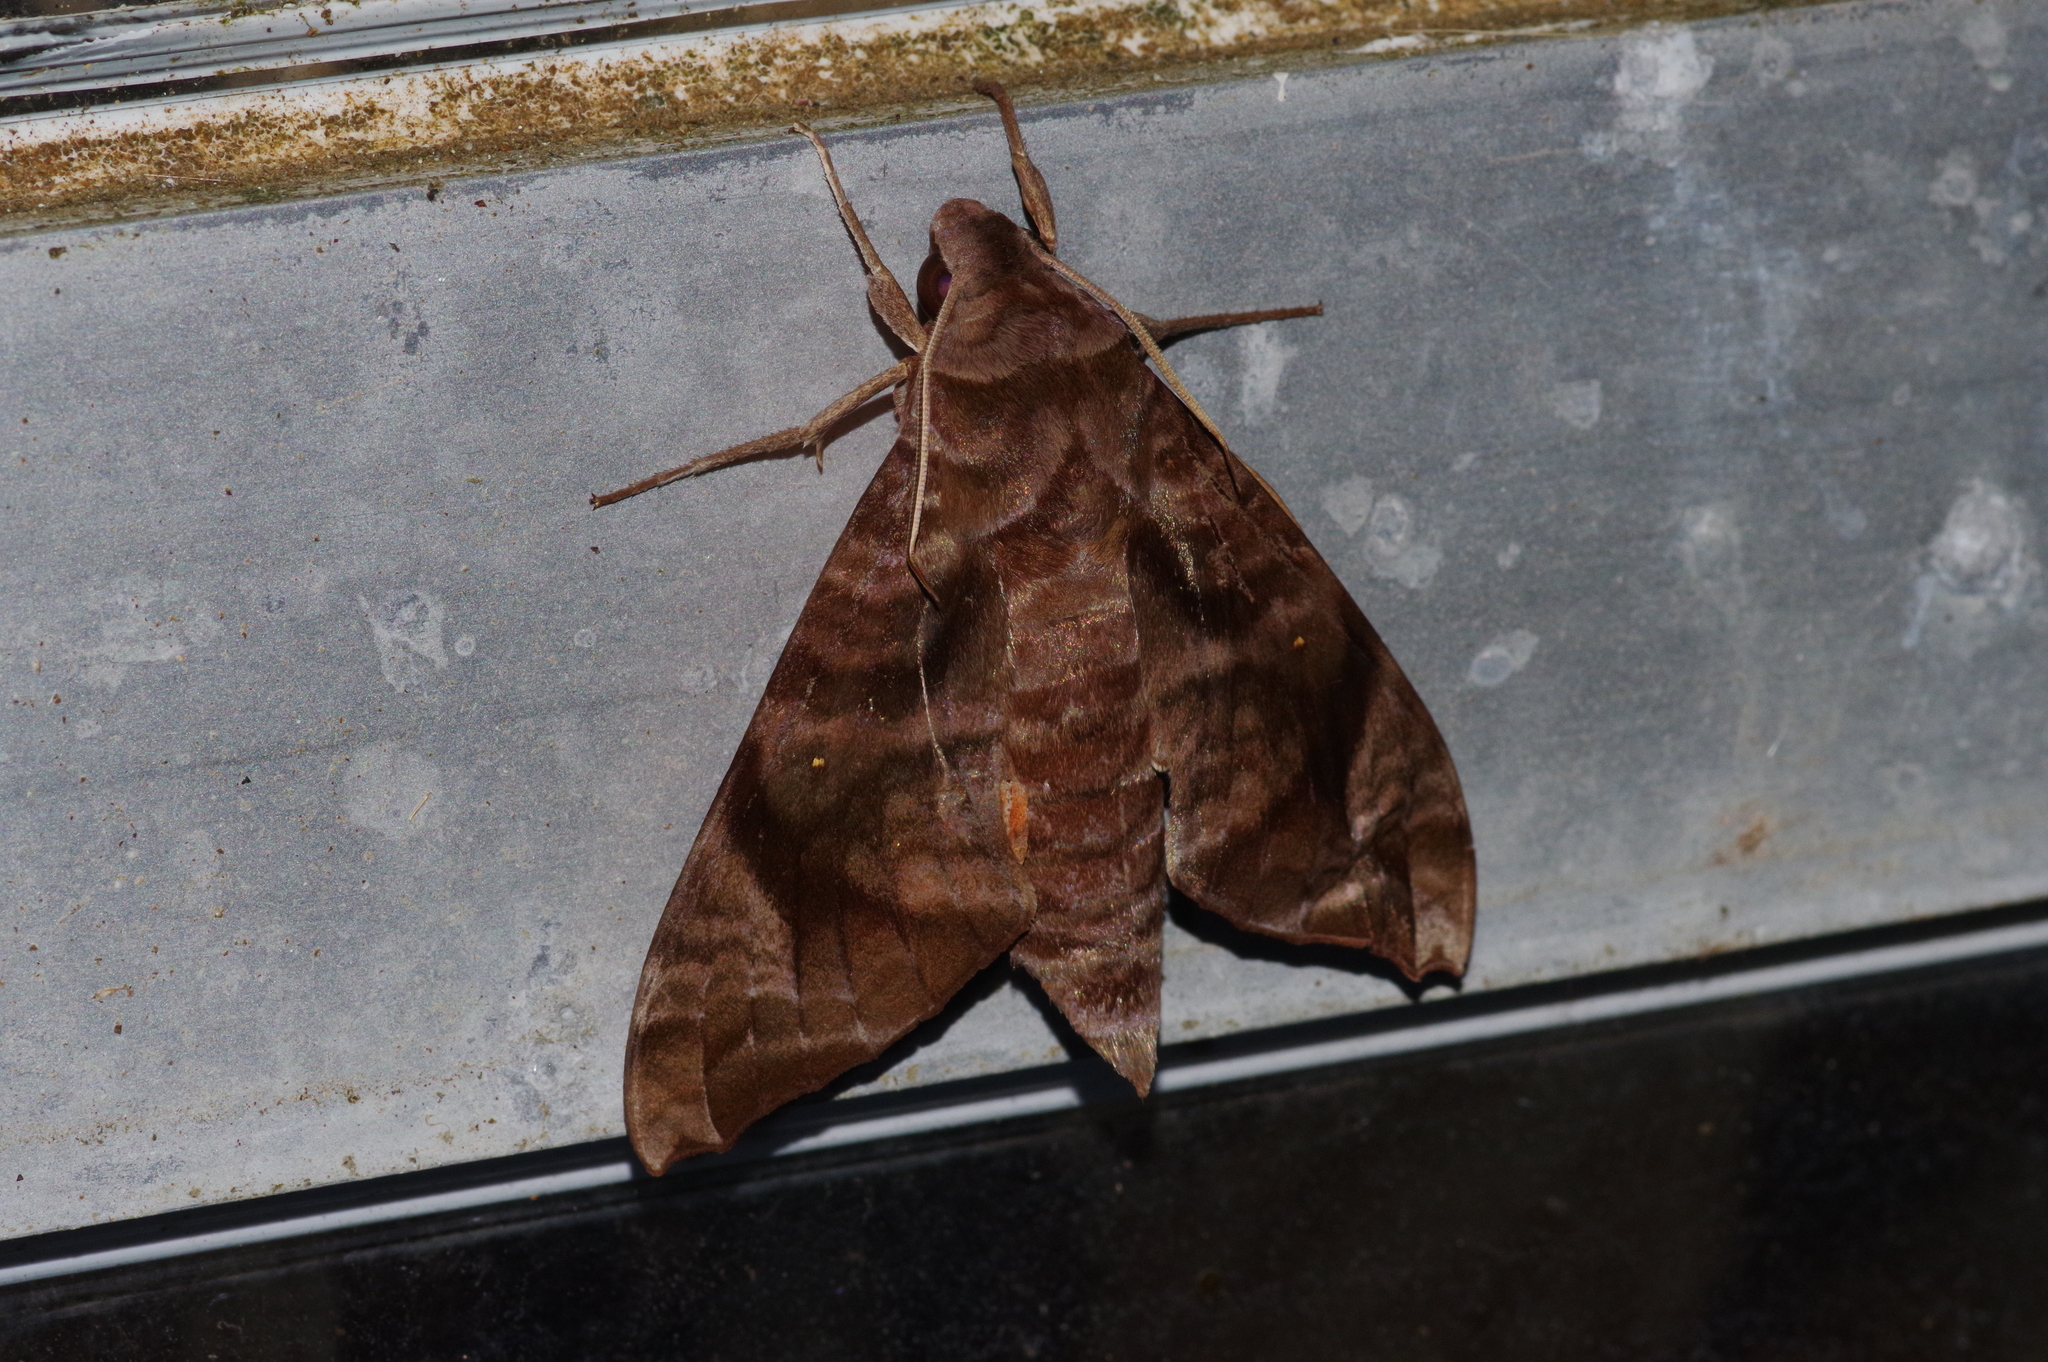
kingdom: Animalia
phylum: Arthropoda
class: Insecta
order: Lepidoptera
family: Sphingidae
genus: Acosmeryx
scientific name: Acosmeryx castanea
